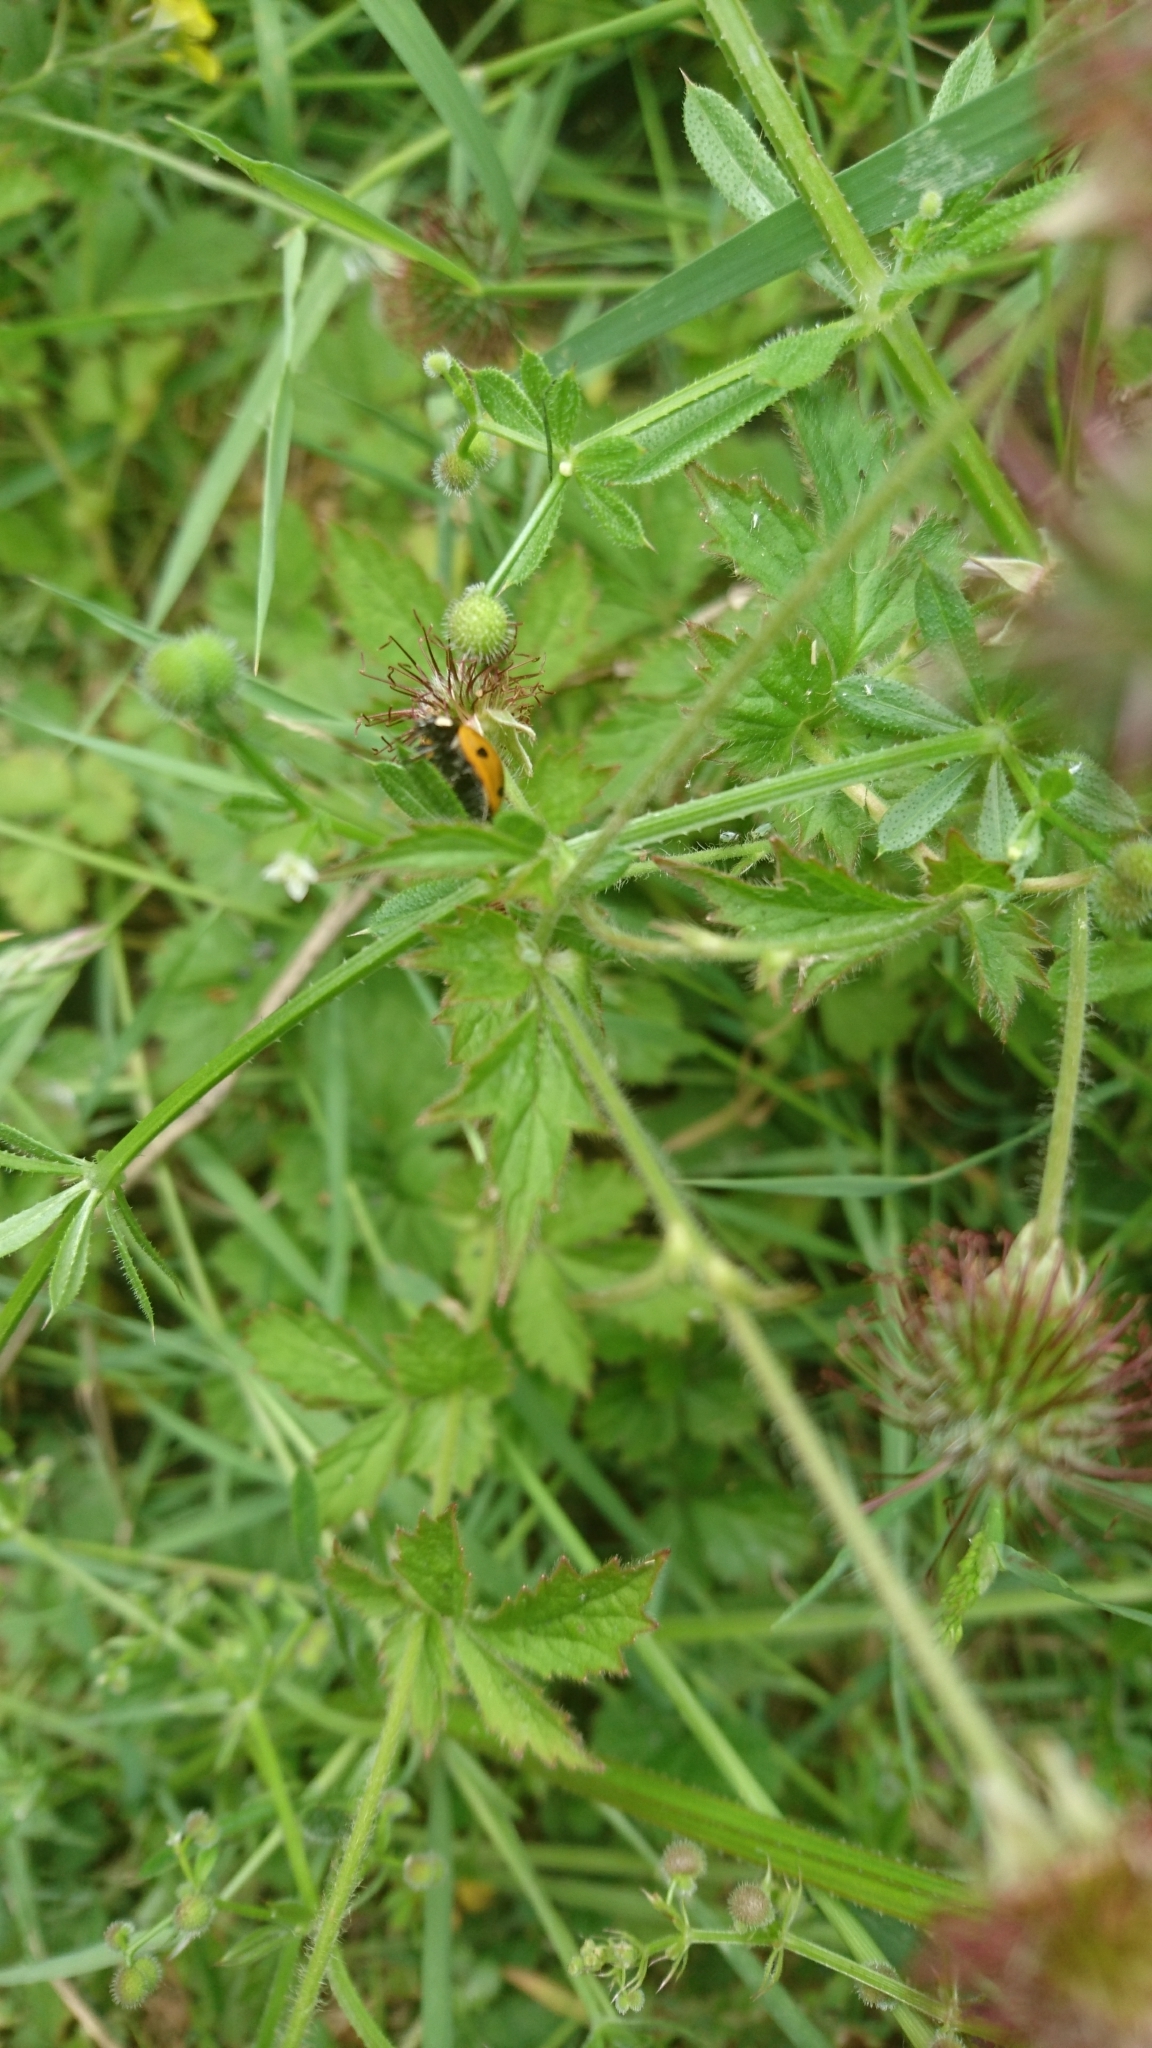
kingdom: Animalia
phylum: Arthropoda
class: Insecta
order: Coleoptera
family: Coccinellidae
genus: Coccinella
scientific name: Coccinella septempunctata
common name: Sevenspotted lady beetle
